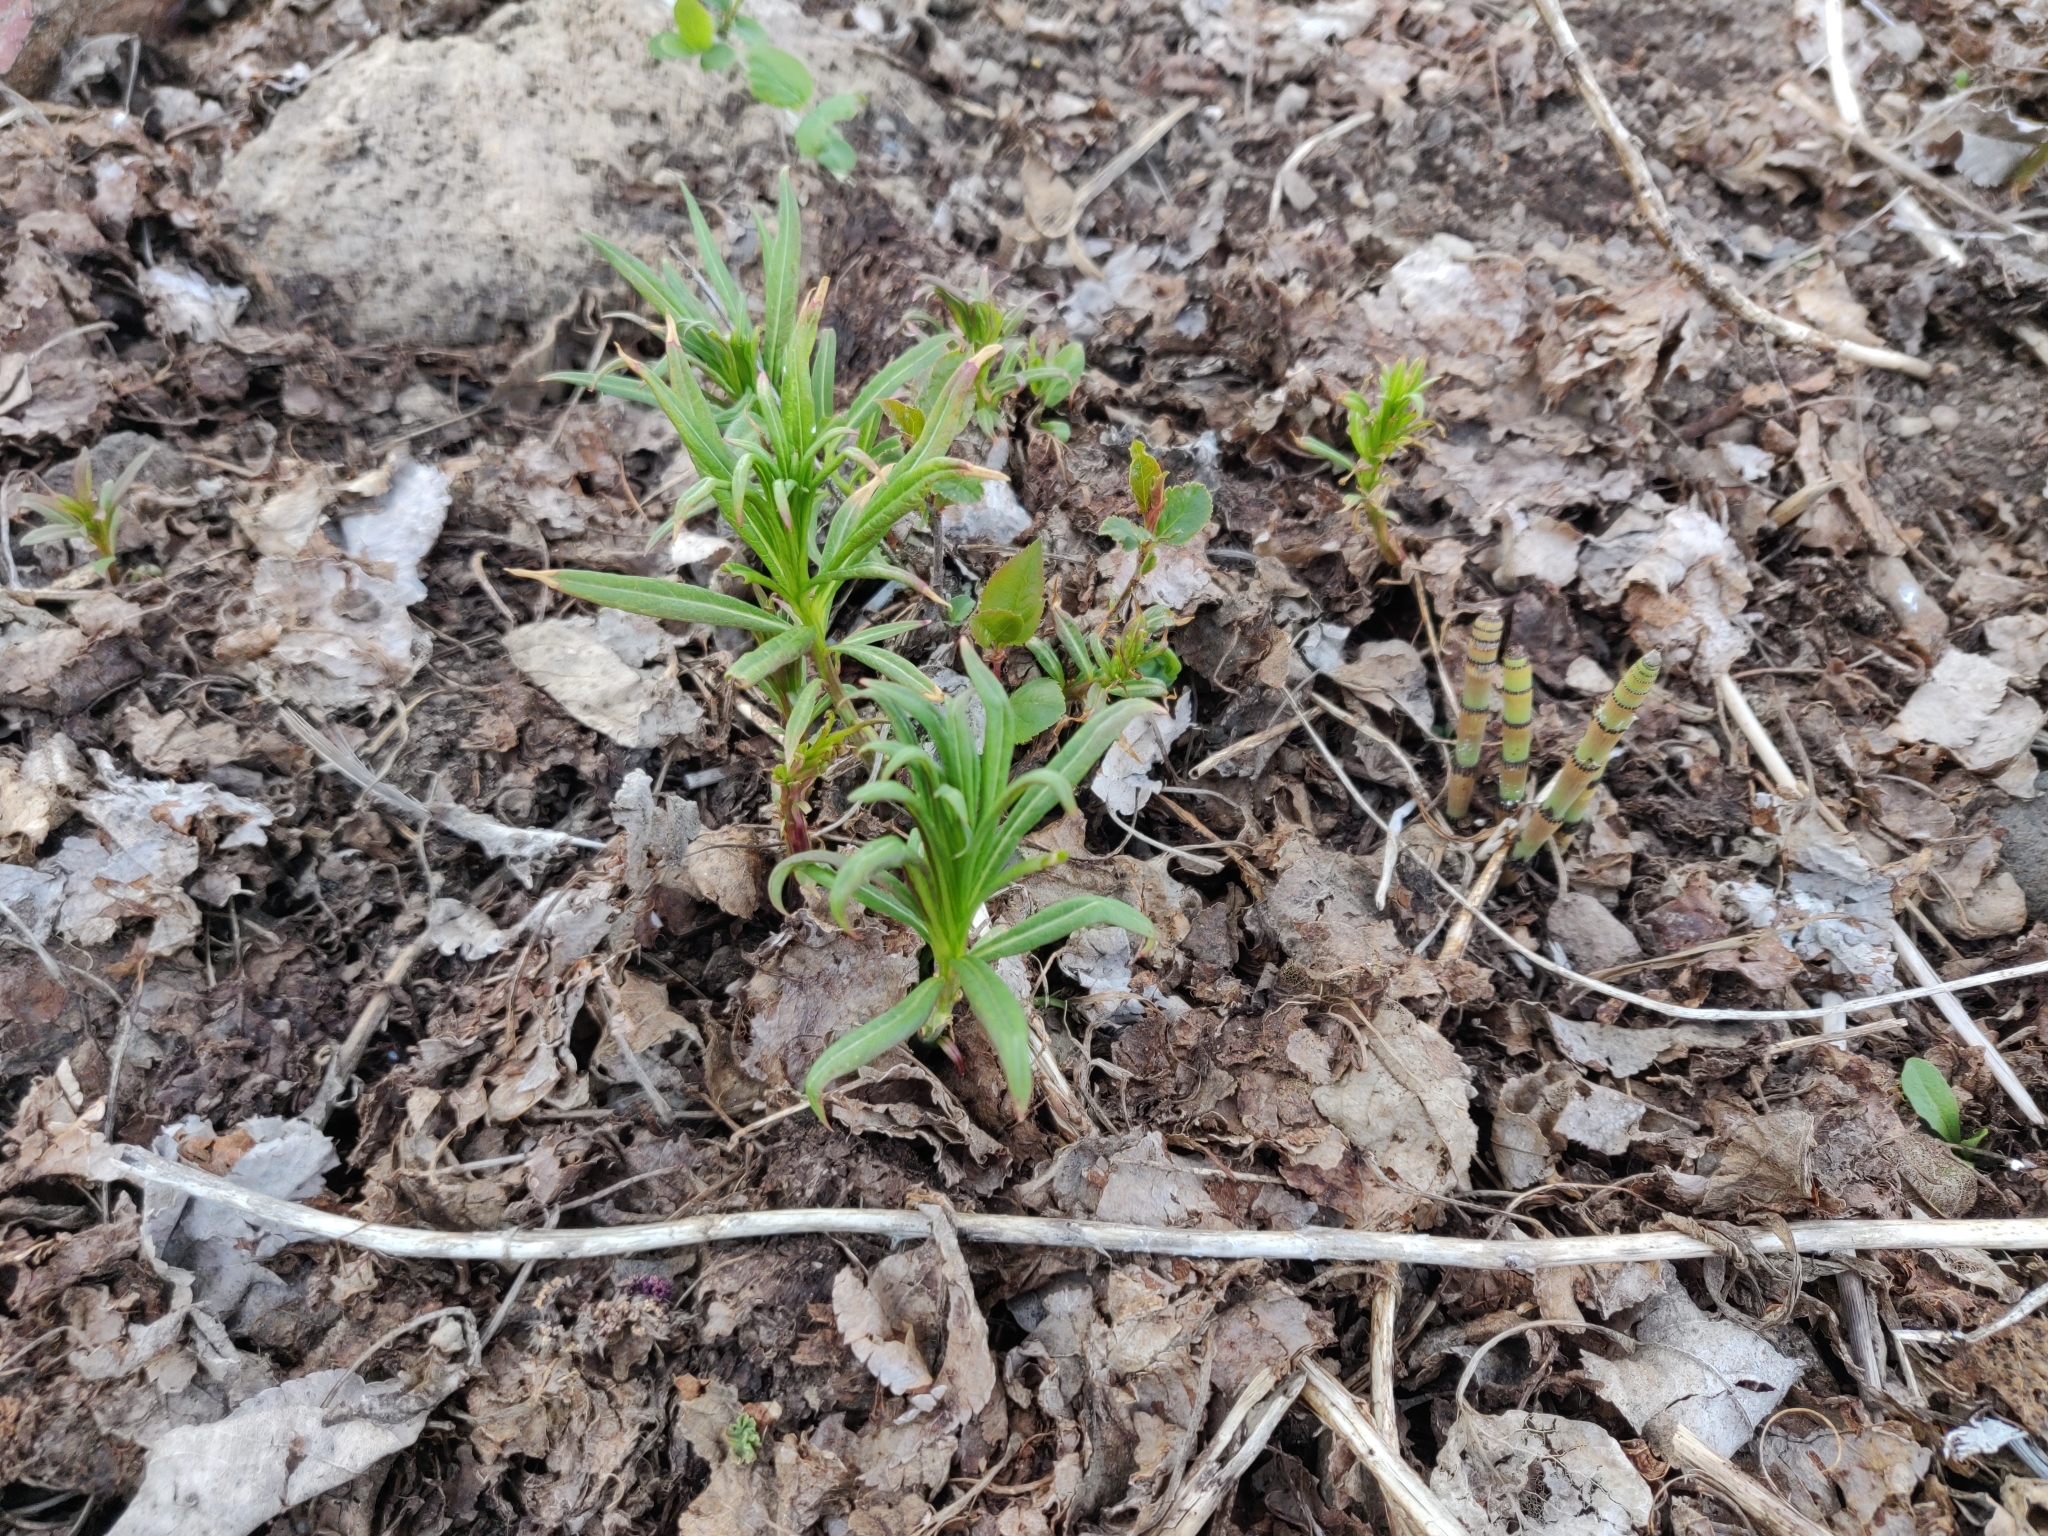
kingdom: Plantae
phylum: Tracheophyta
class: Magnoliopsida
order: Myrtales
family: Onagraceae
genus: Chamaenerion
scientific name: Chamaenerion angustifolium
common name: Fireweed
